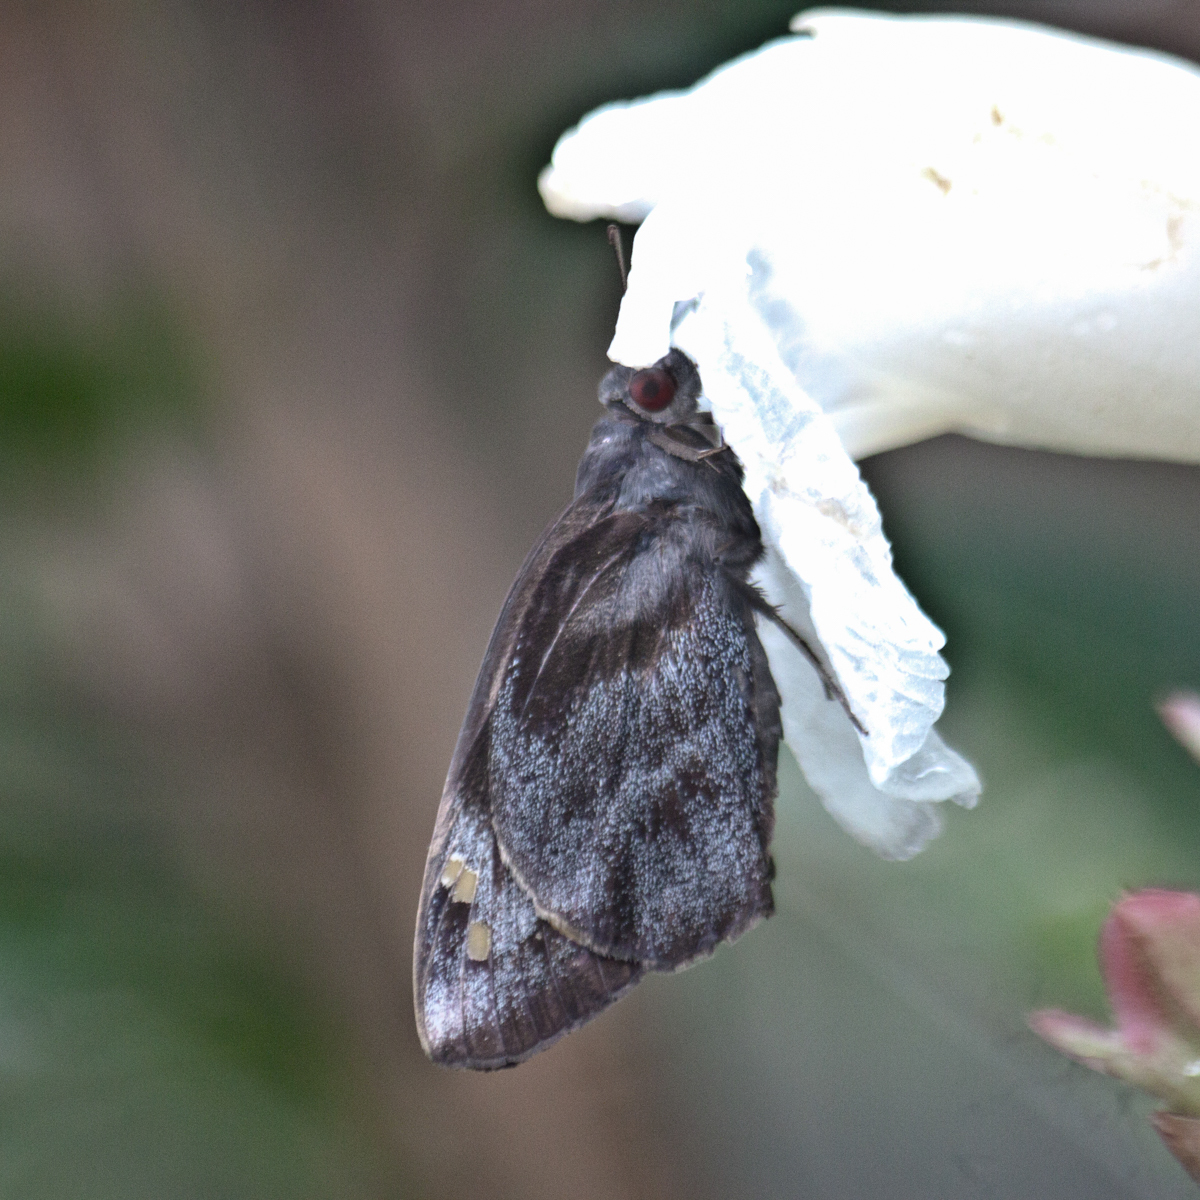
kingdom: Animalia
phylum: Arthropoda
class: Insecta
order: Lepidoptera
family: Hesperiidae
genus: Gangara
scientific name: Gangara thyrsis
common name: Giant redeye
